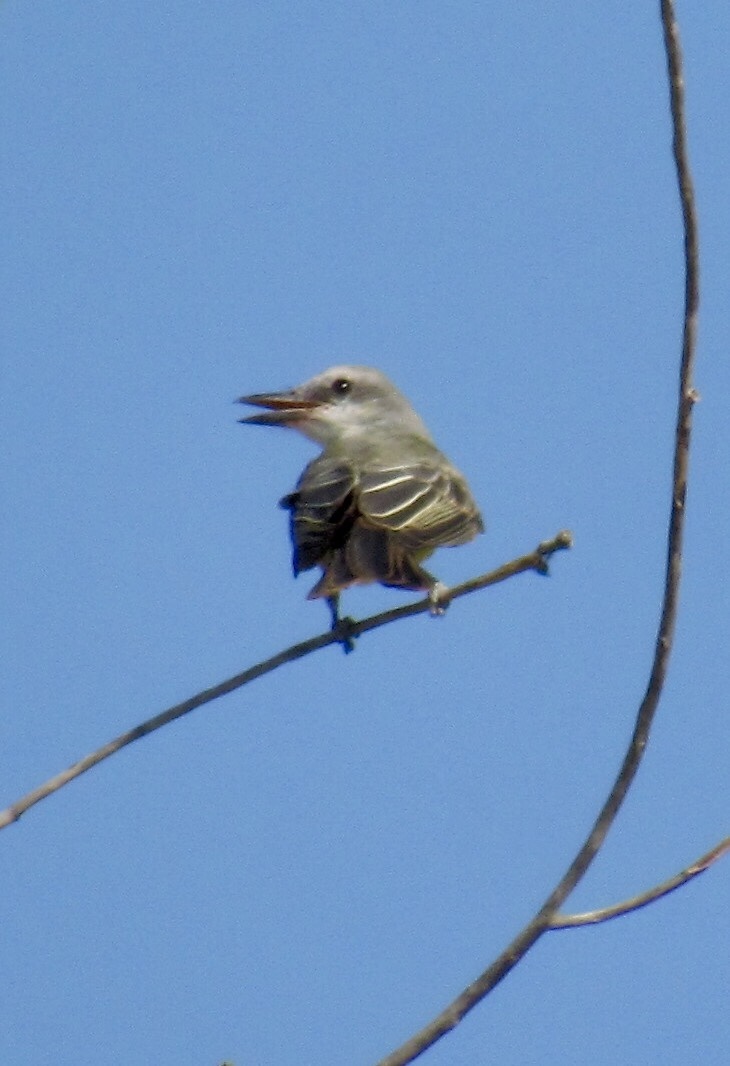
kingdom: Animalia
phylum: Chordata
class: Aves
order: Passeriformes
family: Tyrannidae
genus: Tyrannus
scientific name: Tyrannus melancholicus
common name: Tropical kingbird
